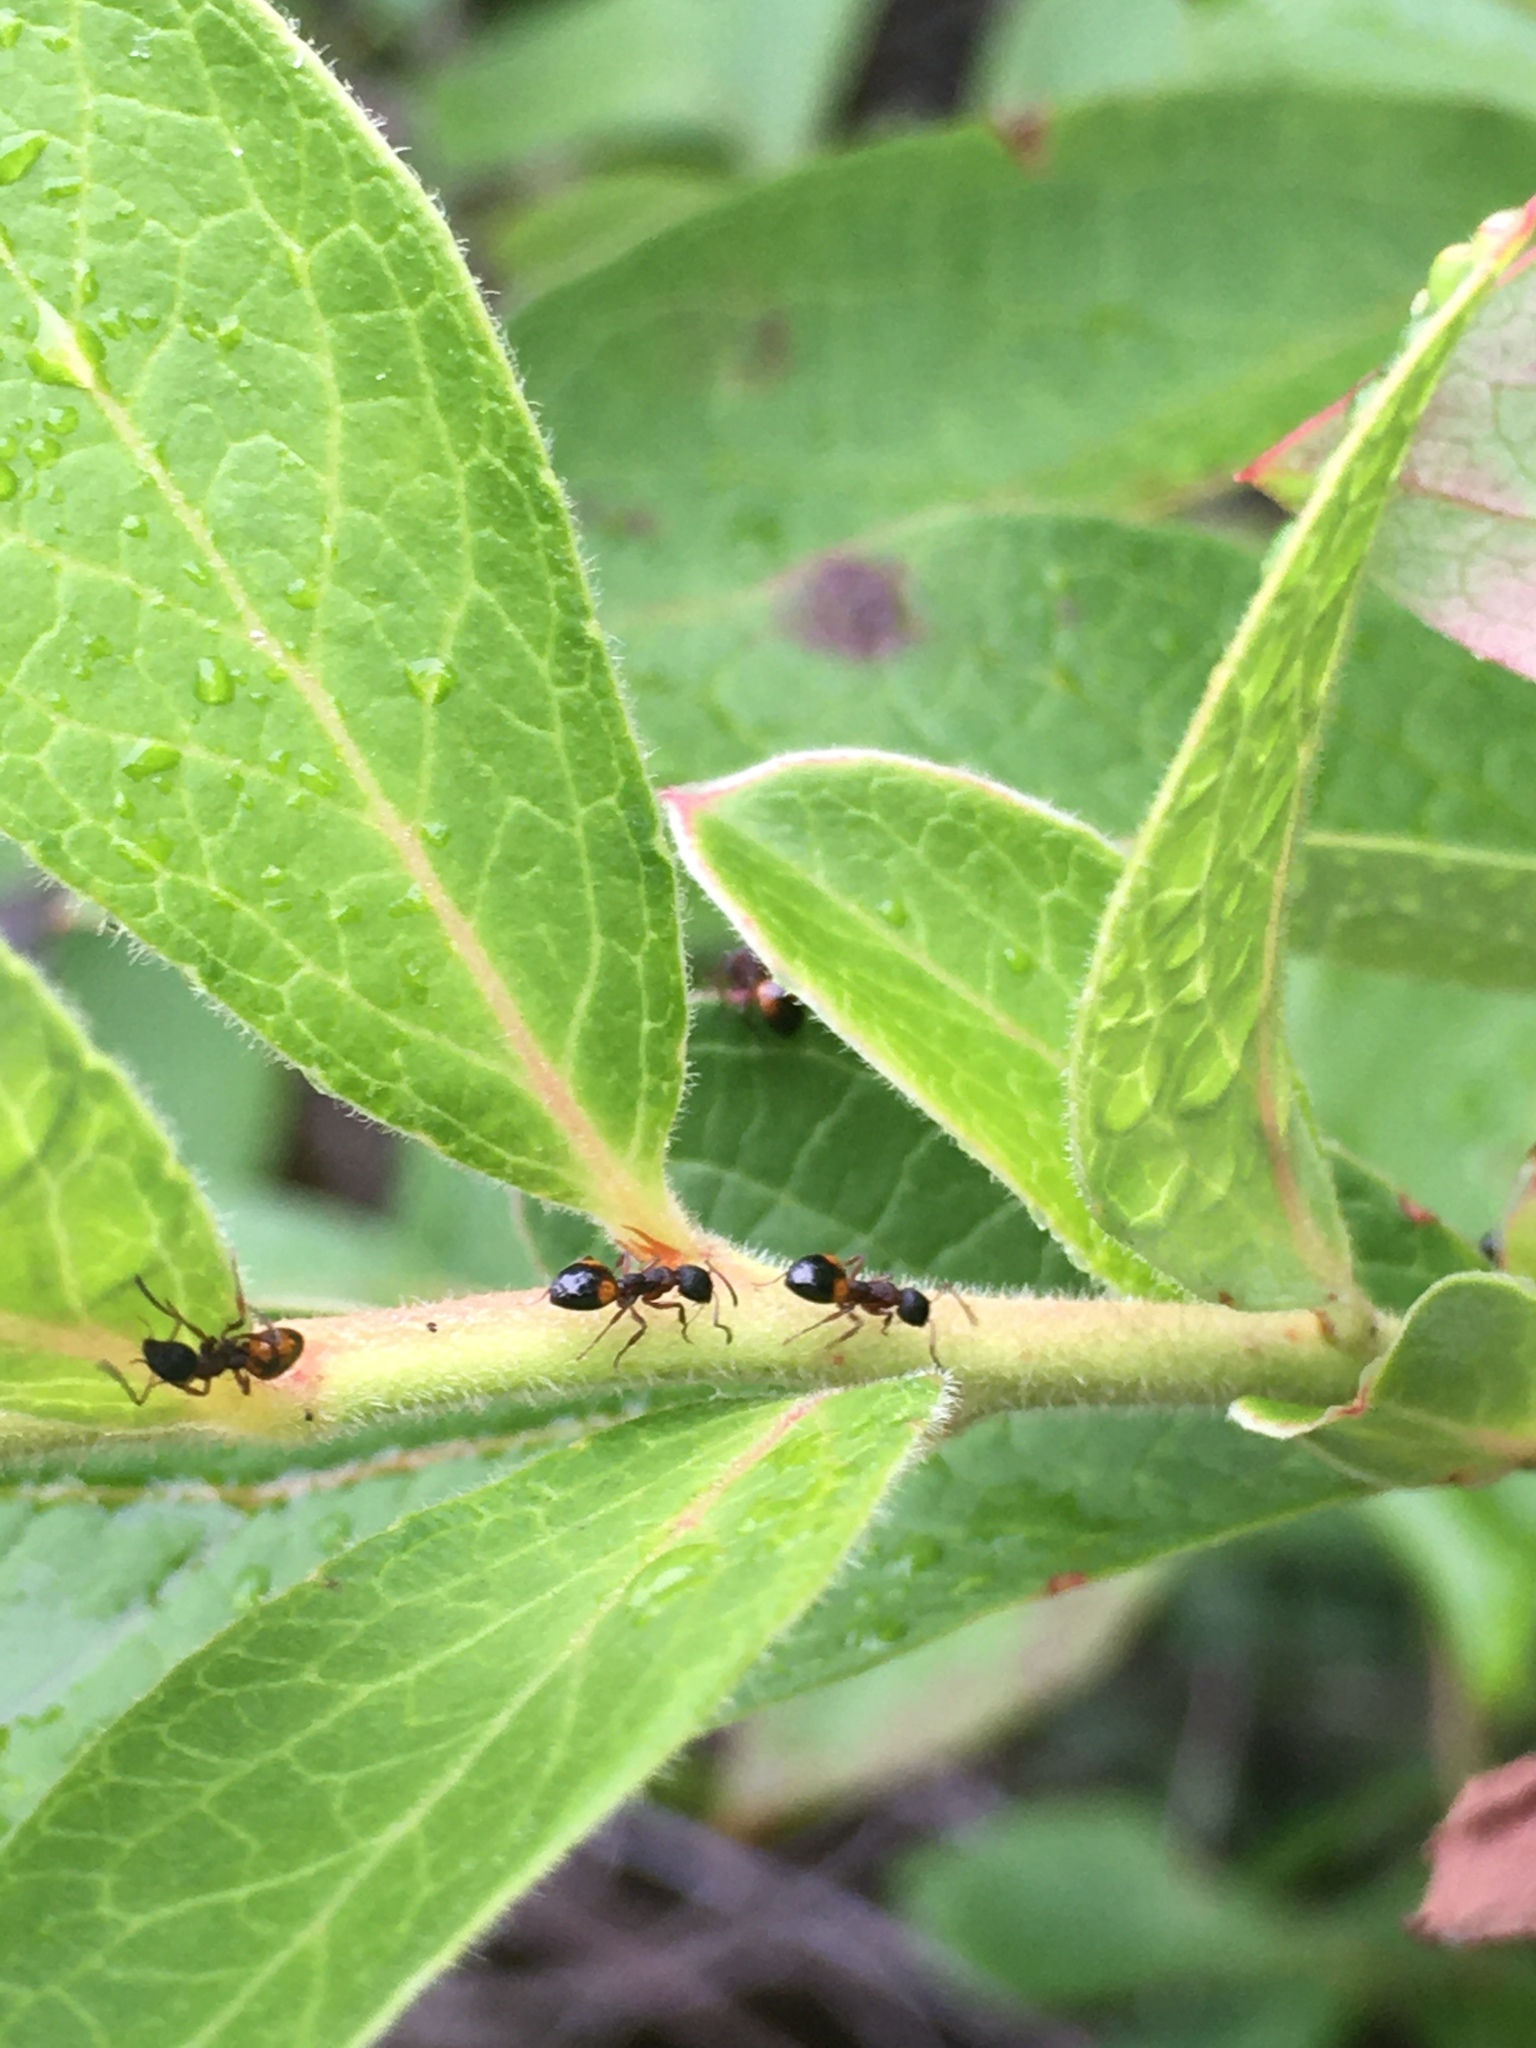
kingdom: Animalia
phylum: Arthropoda
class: Insecta
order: Hymenoptera
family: Formicidae
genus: Dolichoderus
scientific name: Dolichoderus plagiatus
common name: Mottled dolichoderus
